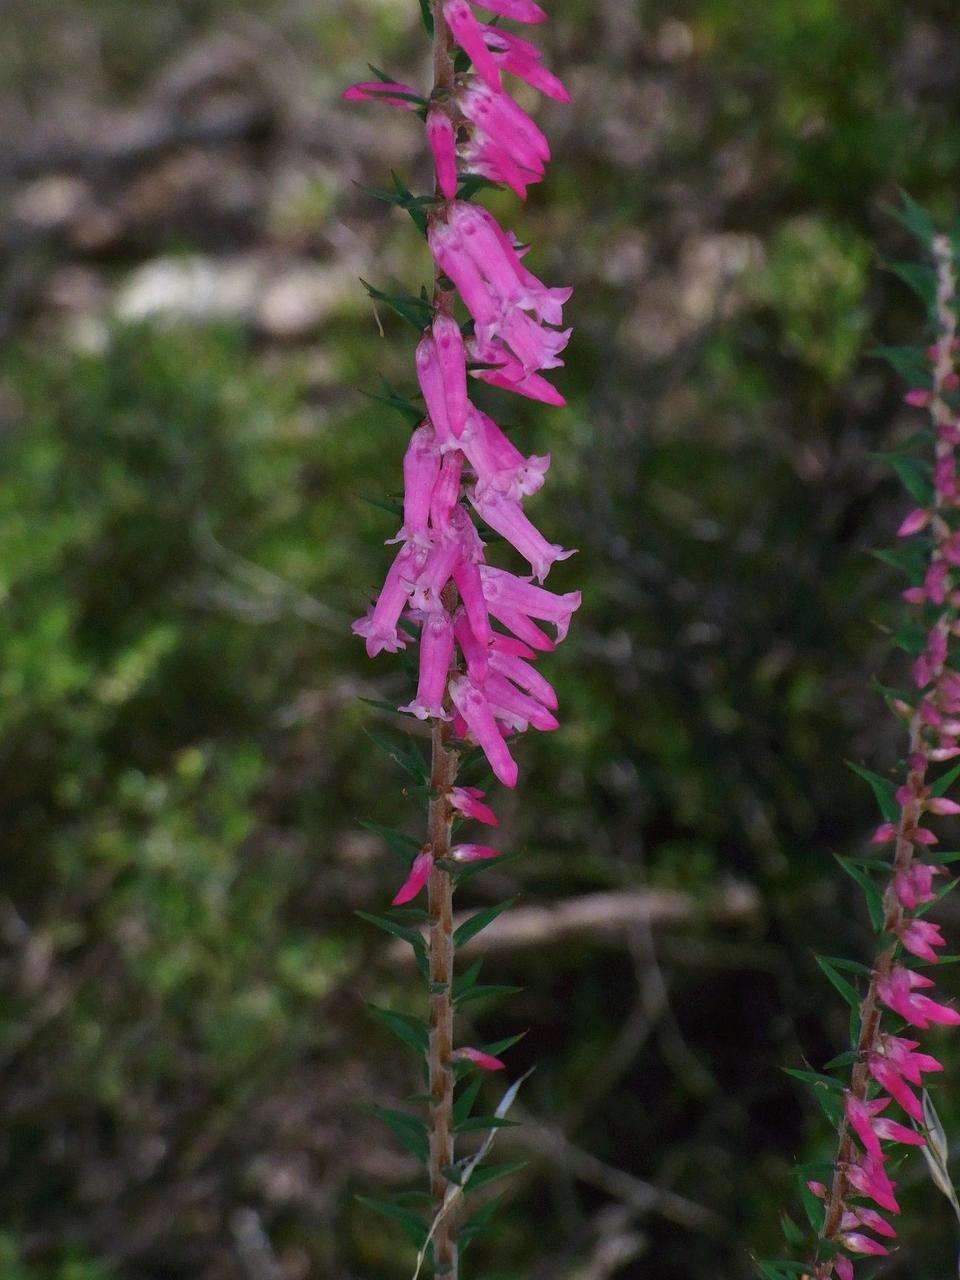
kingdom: Plantae
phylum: Tracheophyta
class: Magnoliopsida
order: Ericales
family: Ericaceae
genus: Epacris
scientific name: Epacris impressa
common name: Common-heath
